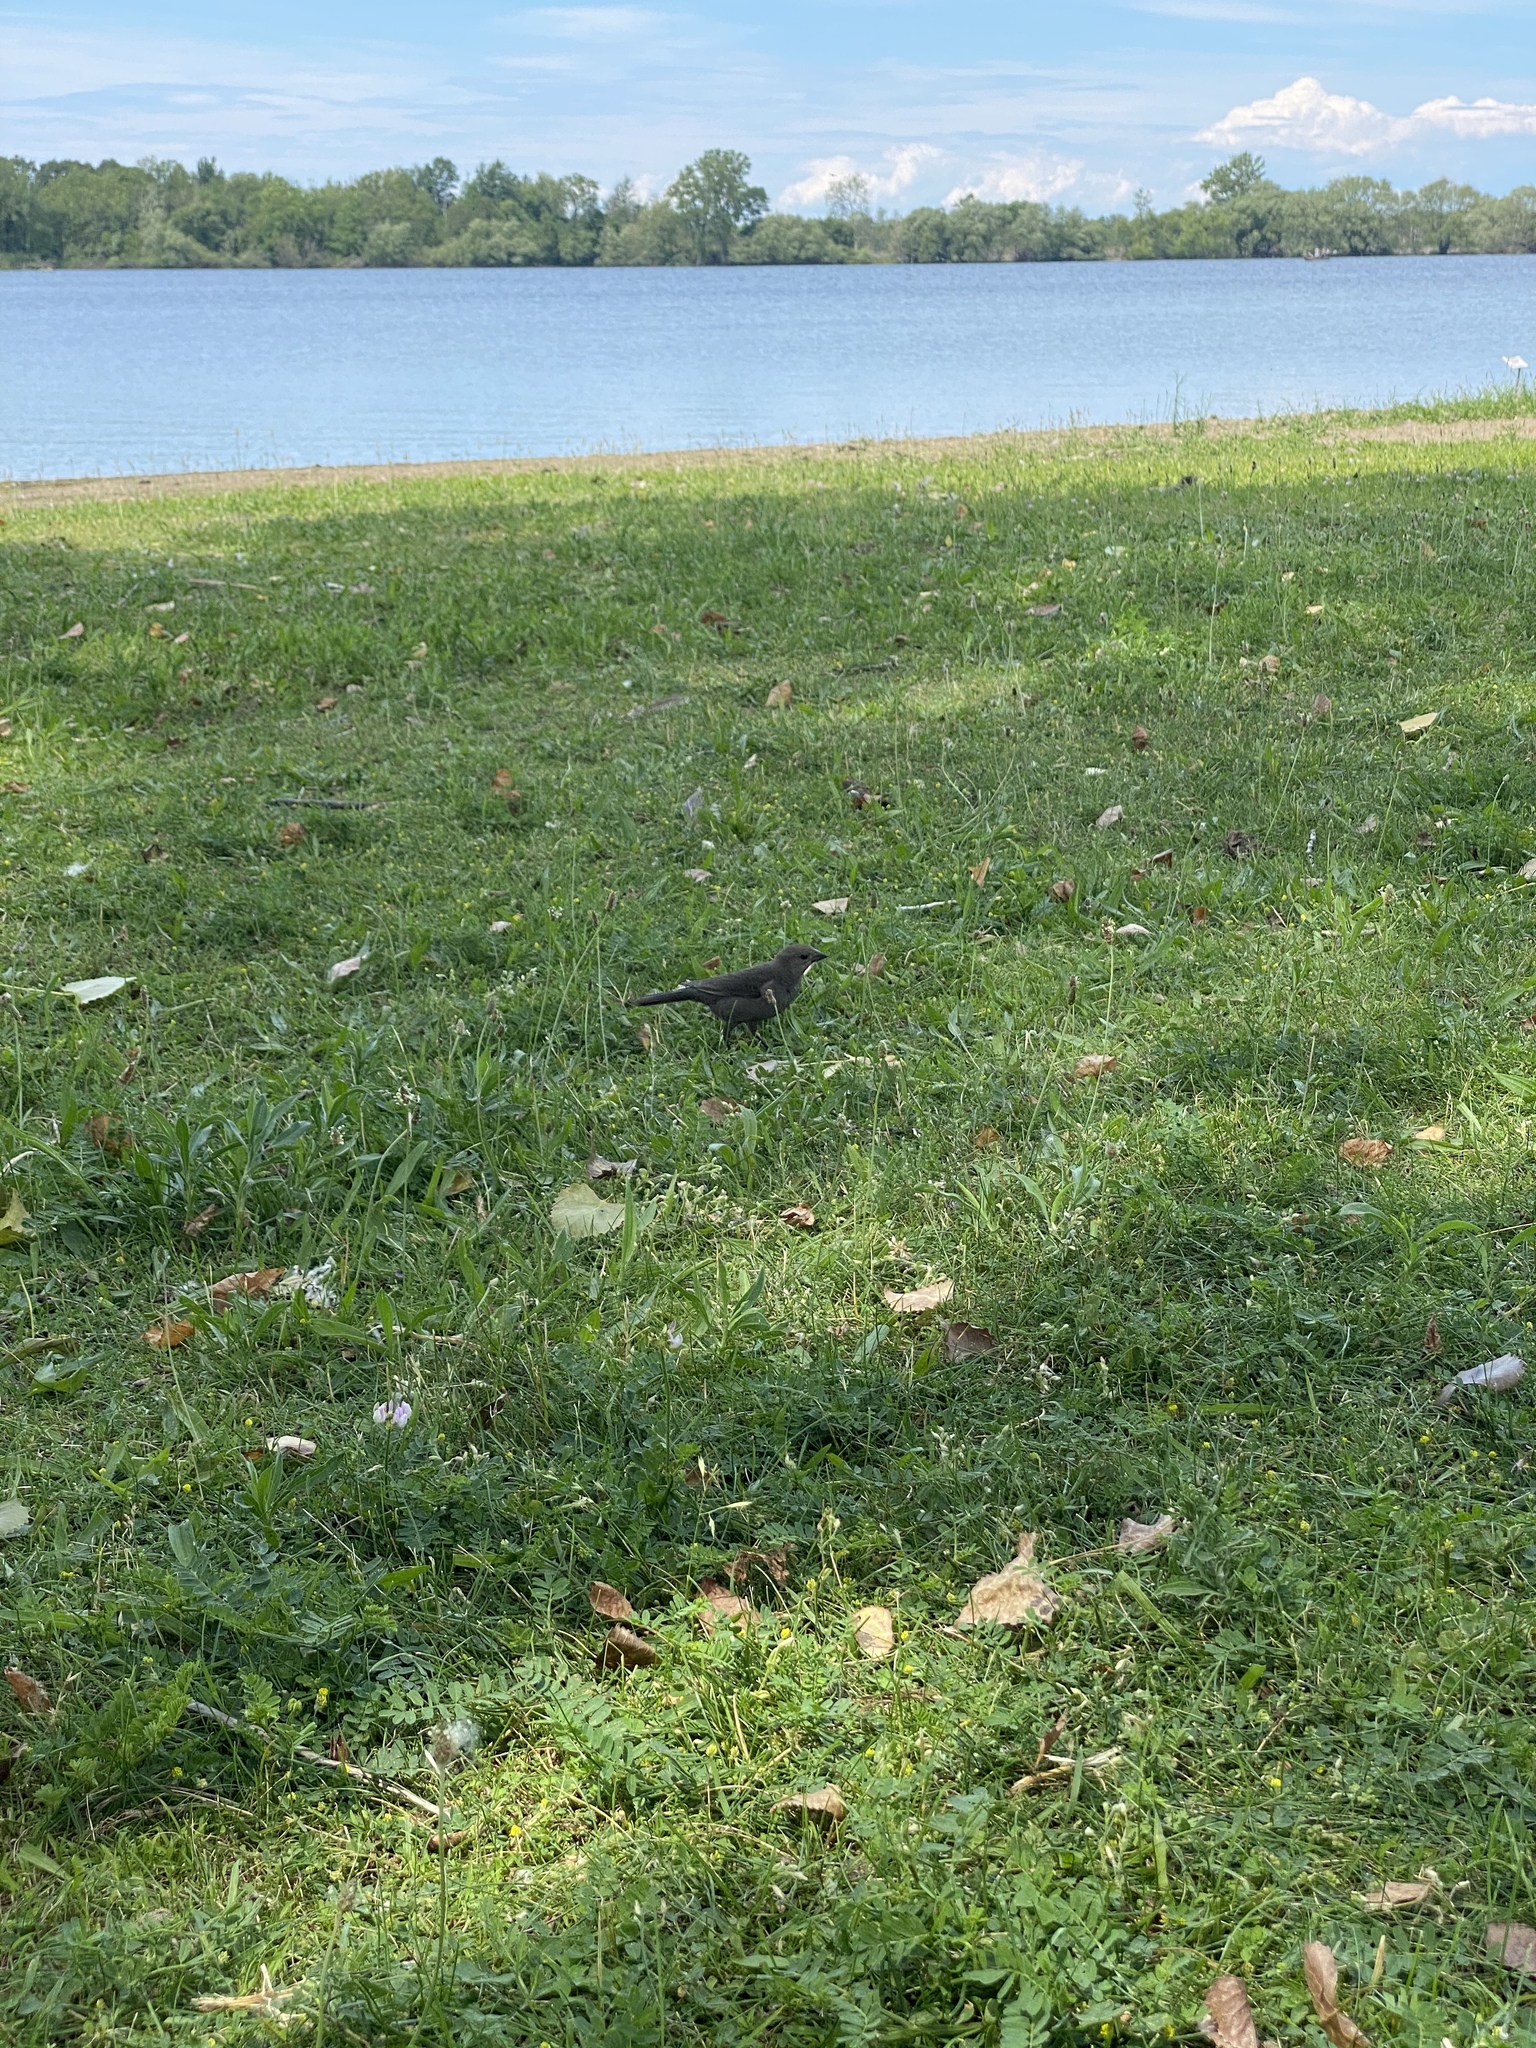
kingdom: Animalia
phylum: Chordata
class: Aves
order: Passeriformes
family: Icteridae
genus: Molothrus
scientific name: Molothrus ater
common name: Brown-headed cowbird
